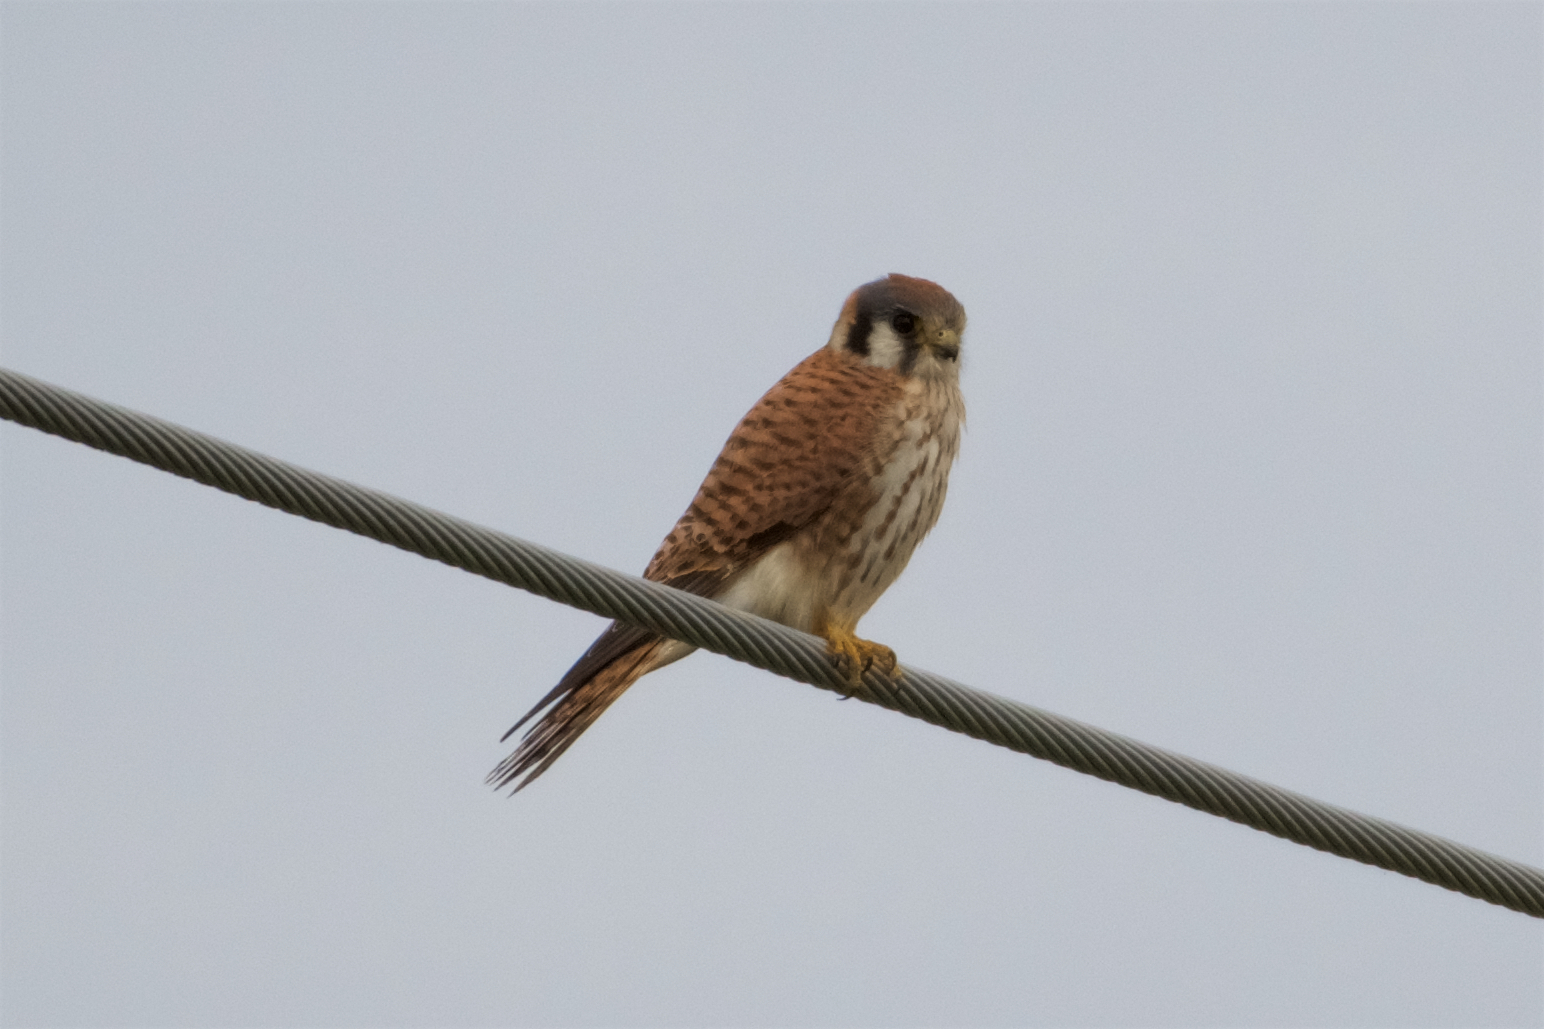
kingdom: Animalia
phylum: Chordata
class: Aves
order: Falconiformes
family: Falconidae
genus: Falco
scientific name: Falco sparverius
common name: American kestrel
